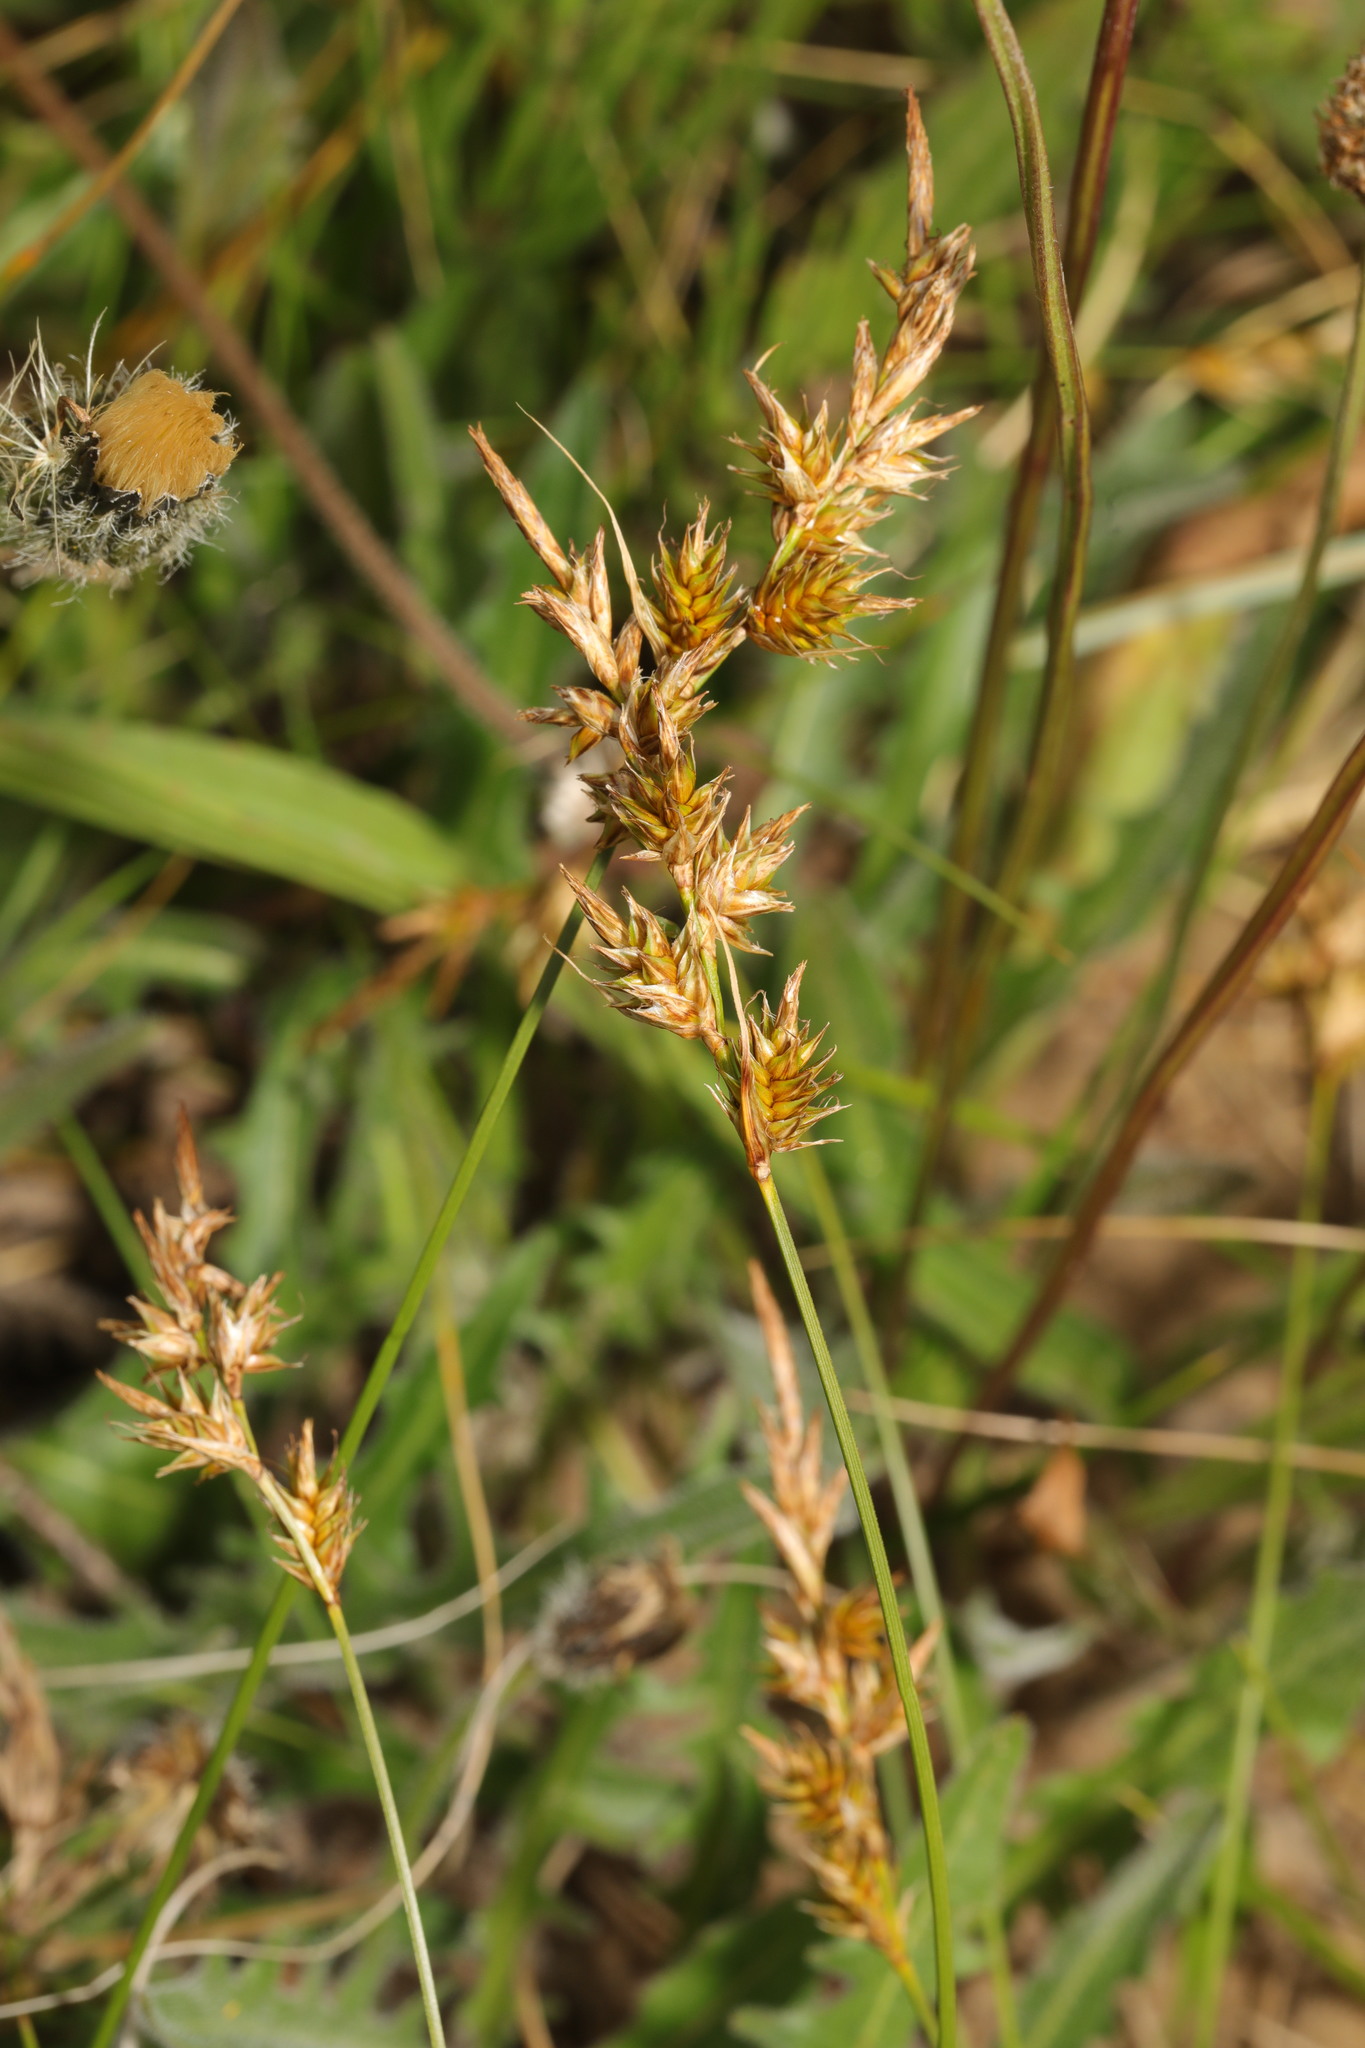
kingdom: Plantae
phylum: Tracheophyta
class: Liliopsida
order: Poales
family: Cyperaceae
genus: Carex
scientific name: Carex arenaria
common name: Sand sedge
